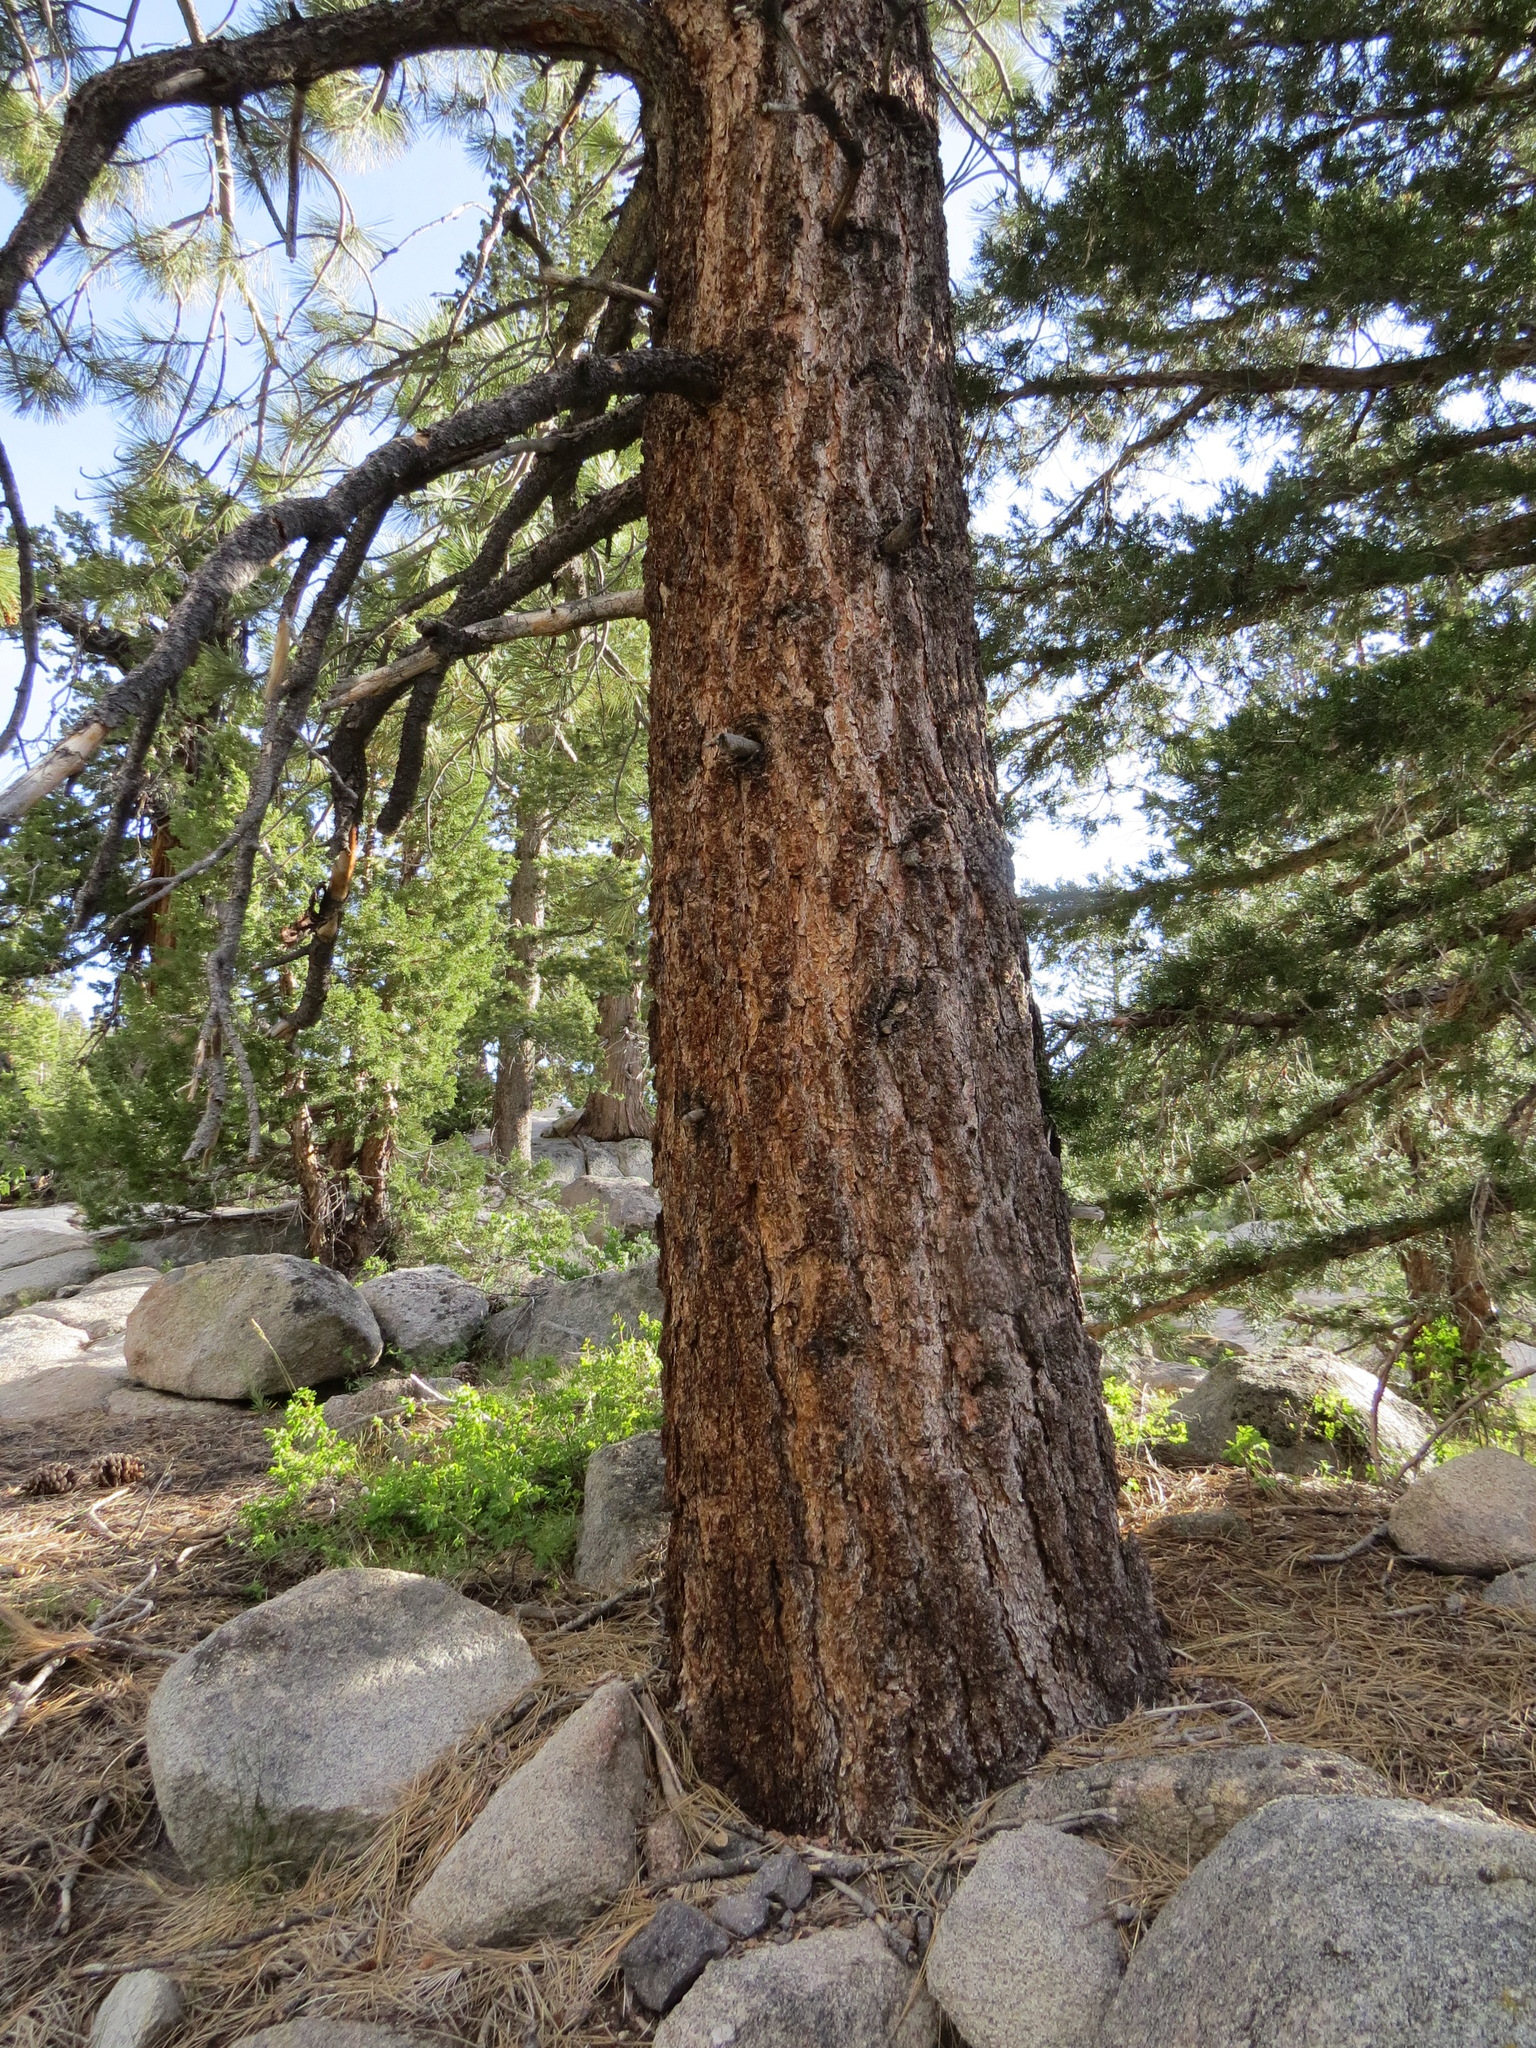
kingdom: Plantae
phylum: Tracheophyta
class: Pinopsida
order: Pinales
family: Pinaceae
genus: Pinus
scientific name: Pinus jeffreyi
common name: Jeffrey pine
